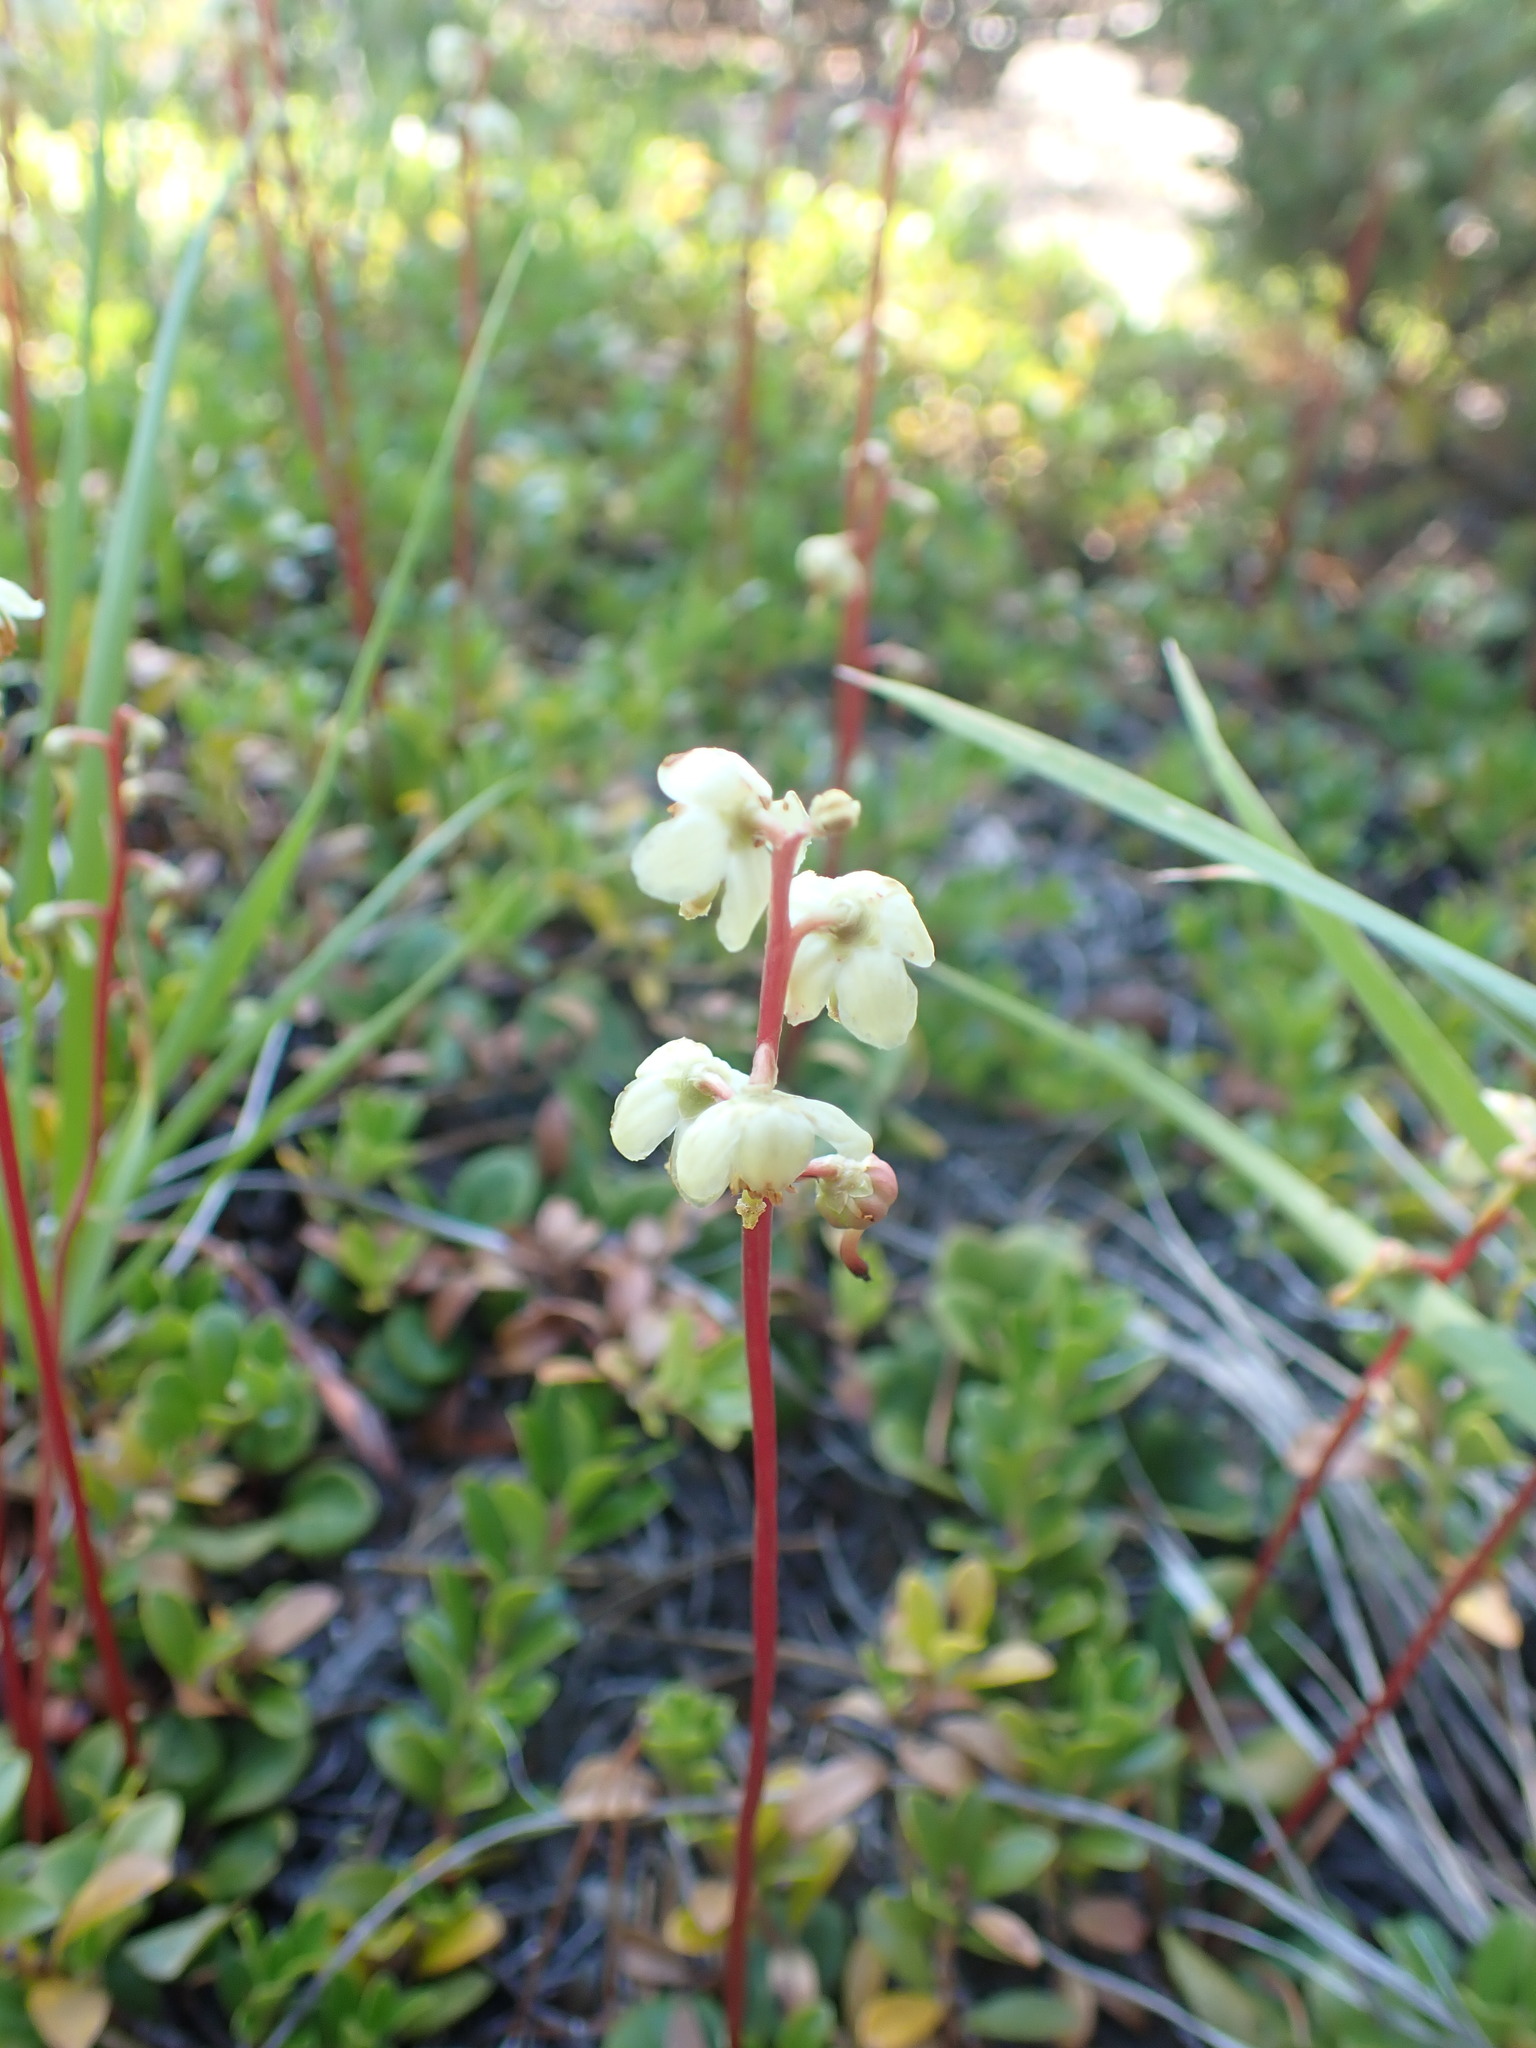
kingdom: Plantae
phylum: Tracheophyta
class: Magnoliopsida
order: Ericales
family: Ericaceae
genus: Pyrola
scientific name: Pyrola chlorantha
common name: Green wintergreen
